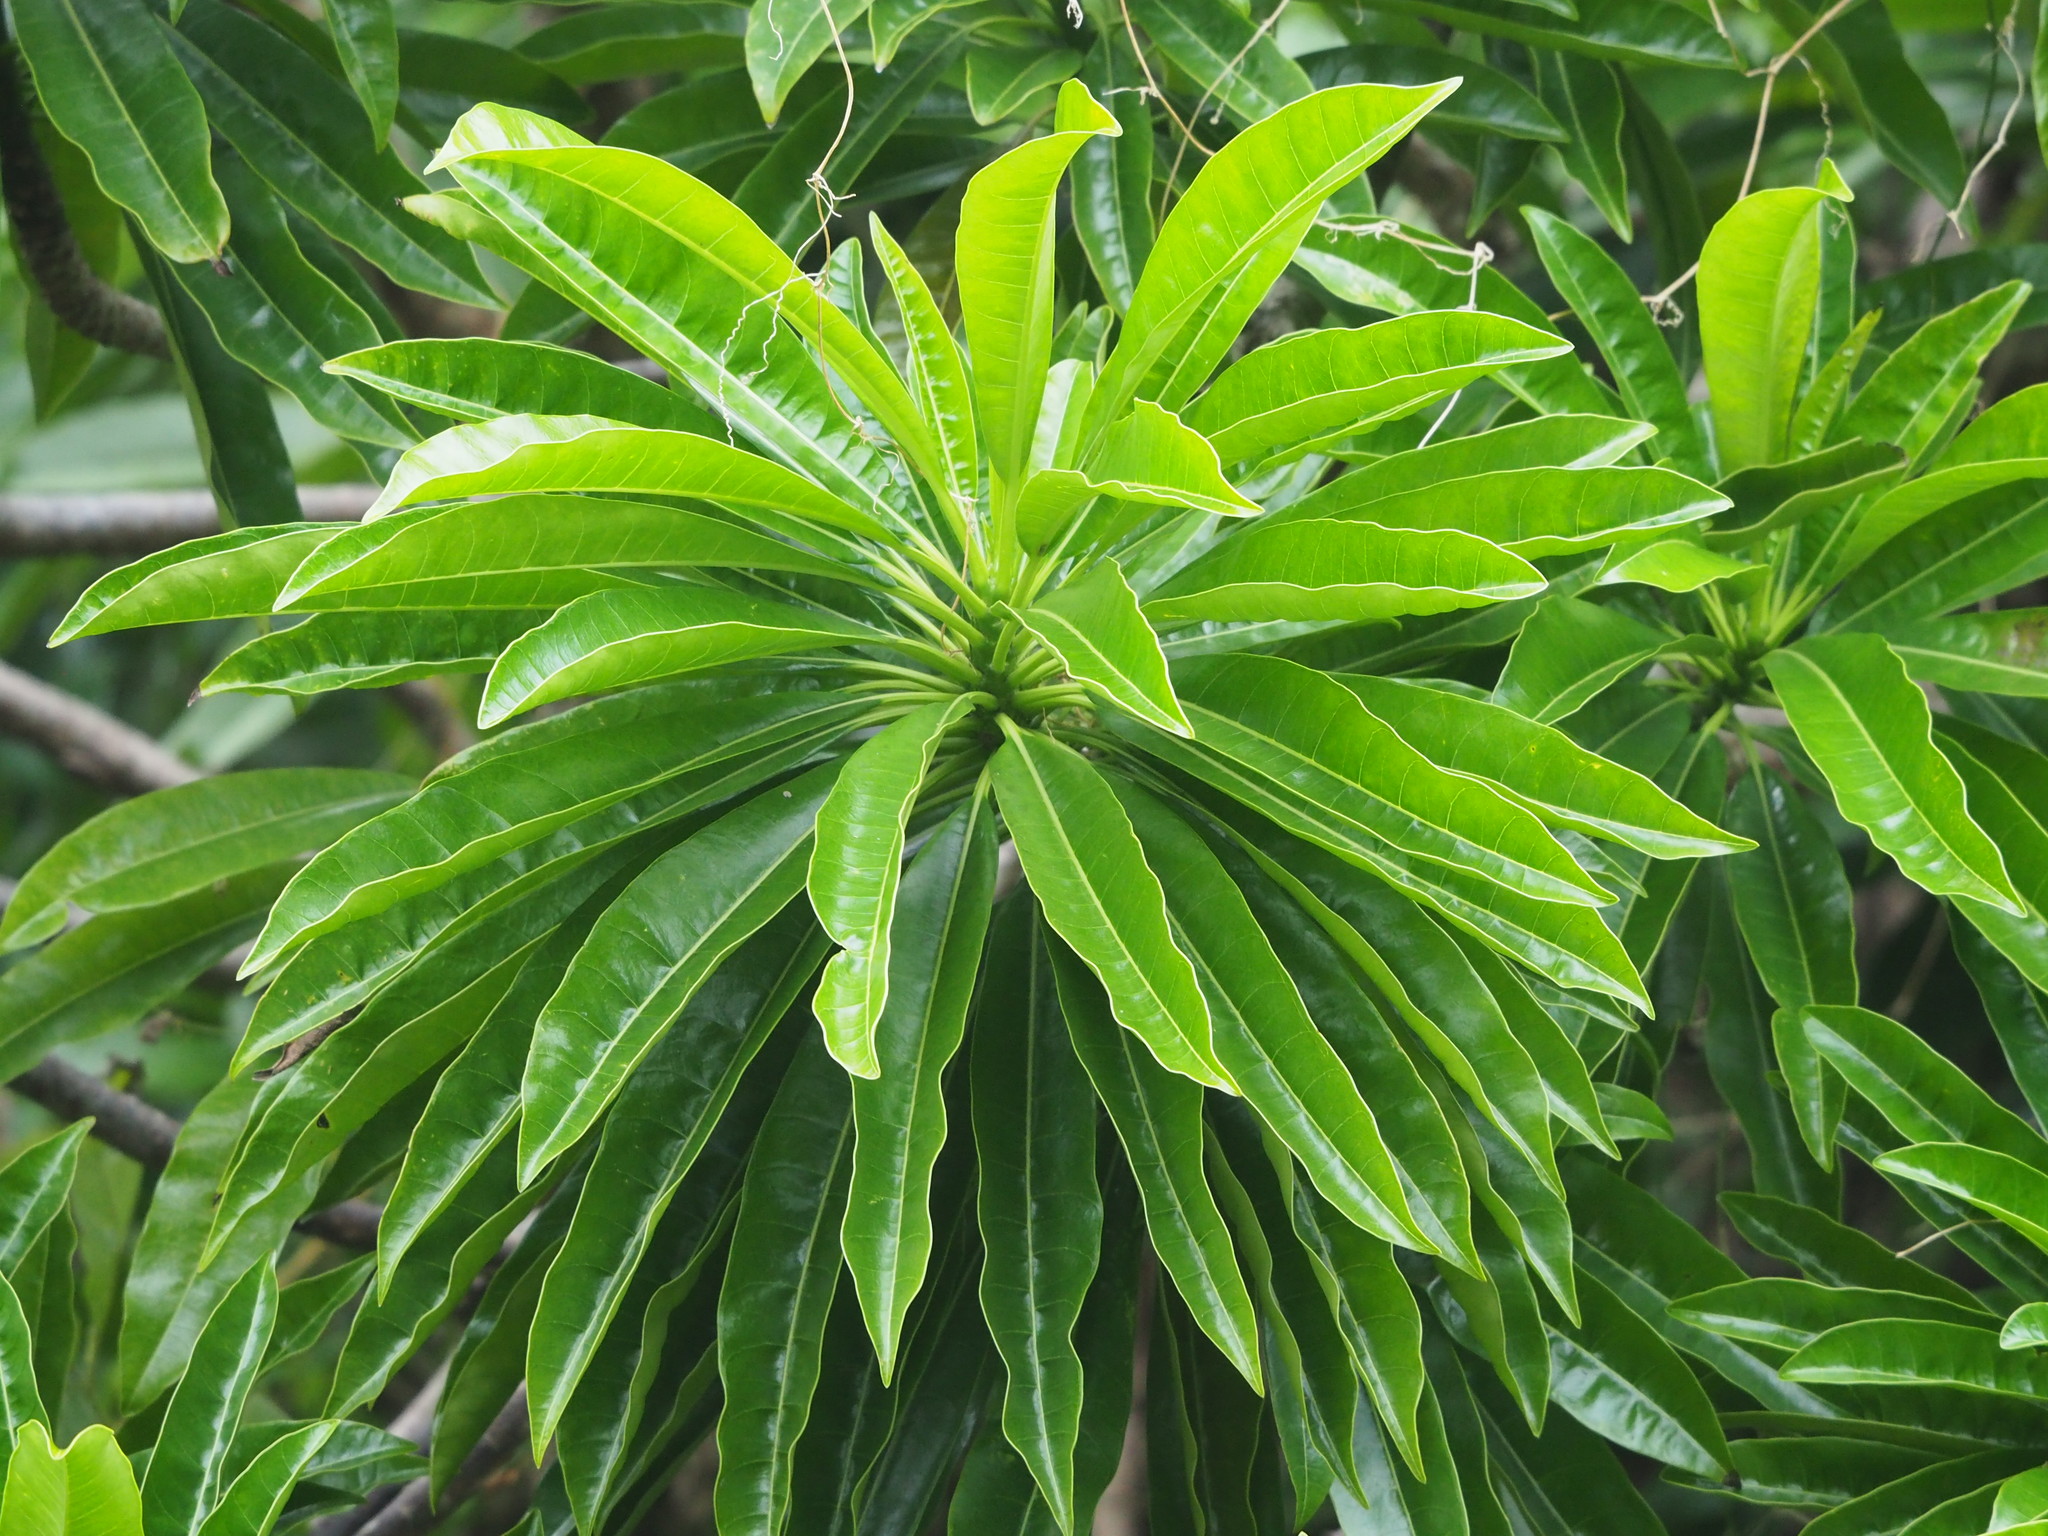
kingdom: Plantae
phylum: Tracheophyta
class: Magnoliopsida
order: Gentianales
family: Apocynaceae
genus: Cerbera
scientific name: Cerbera manghas
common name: Reva
